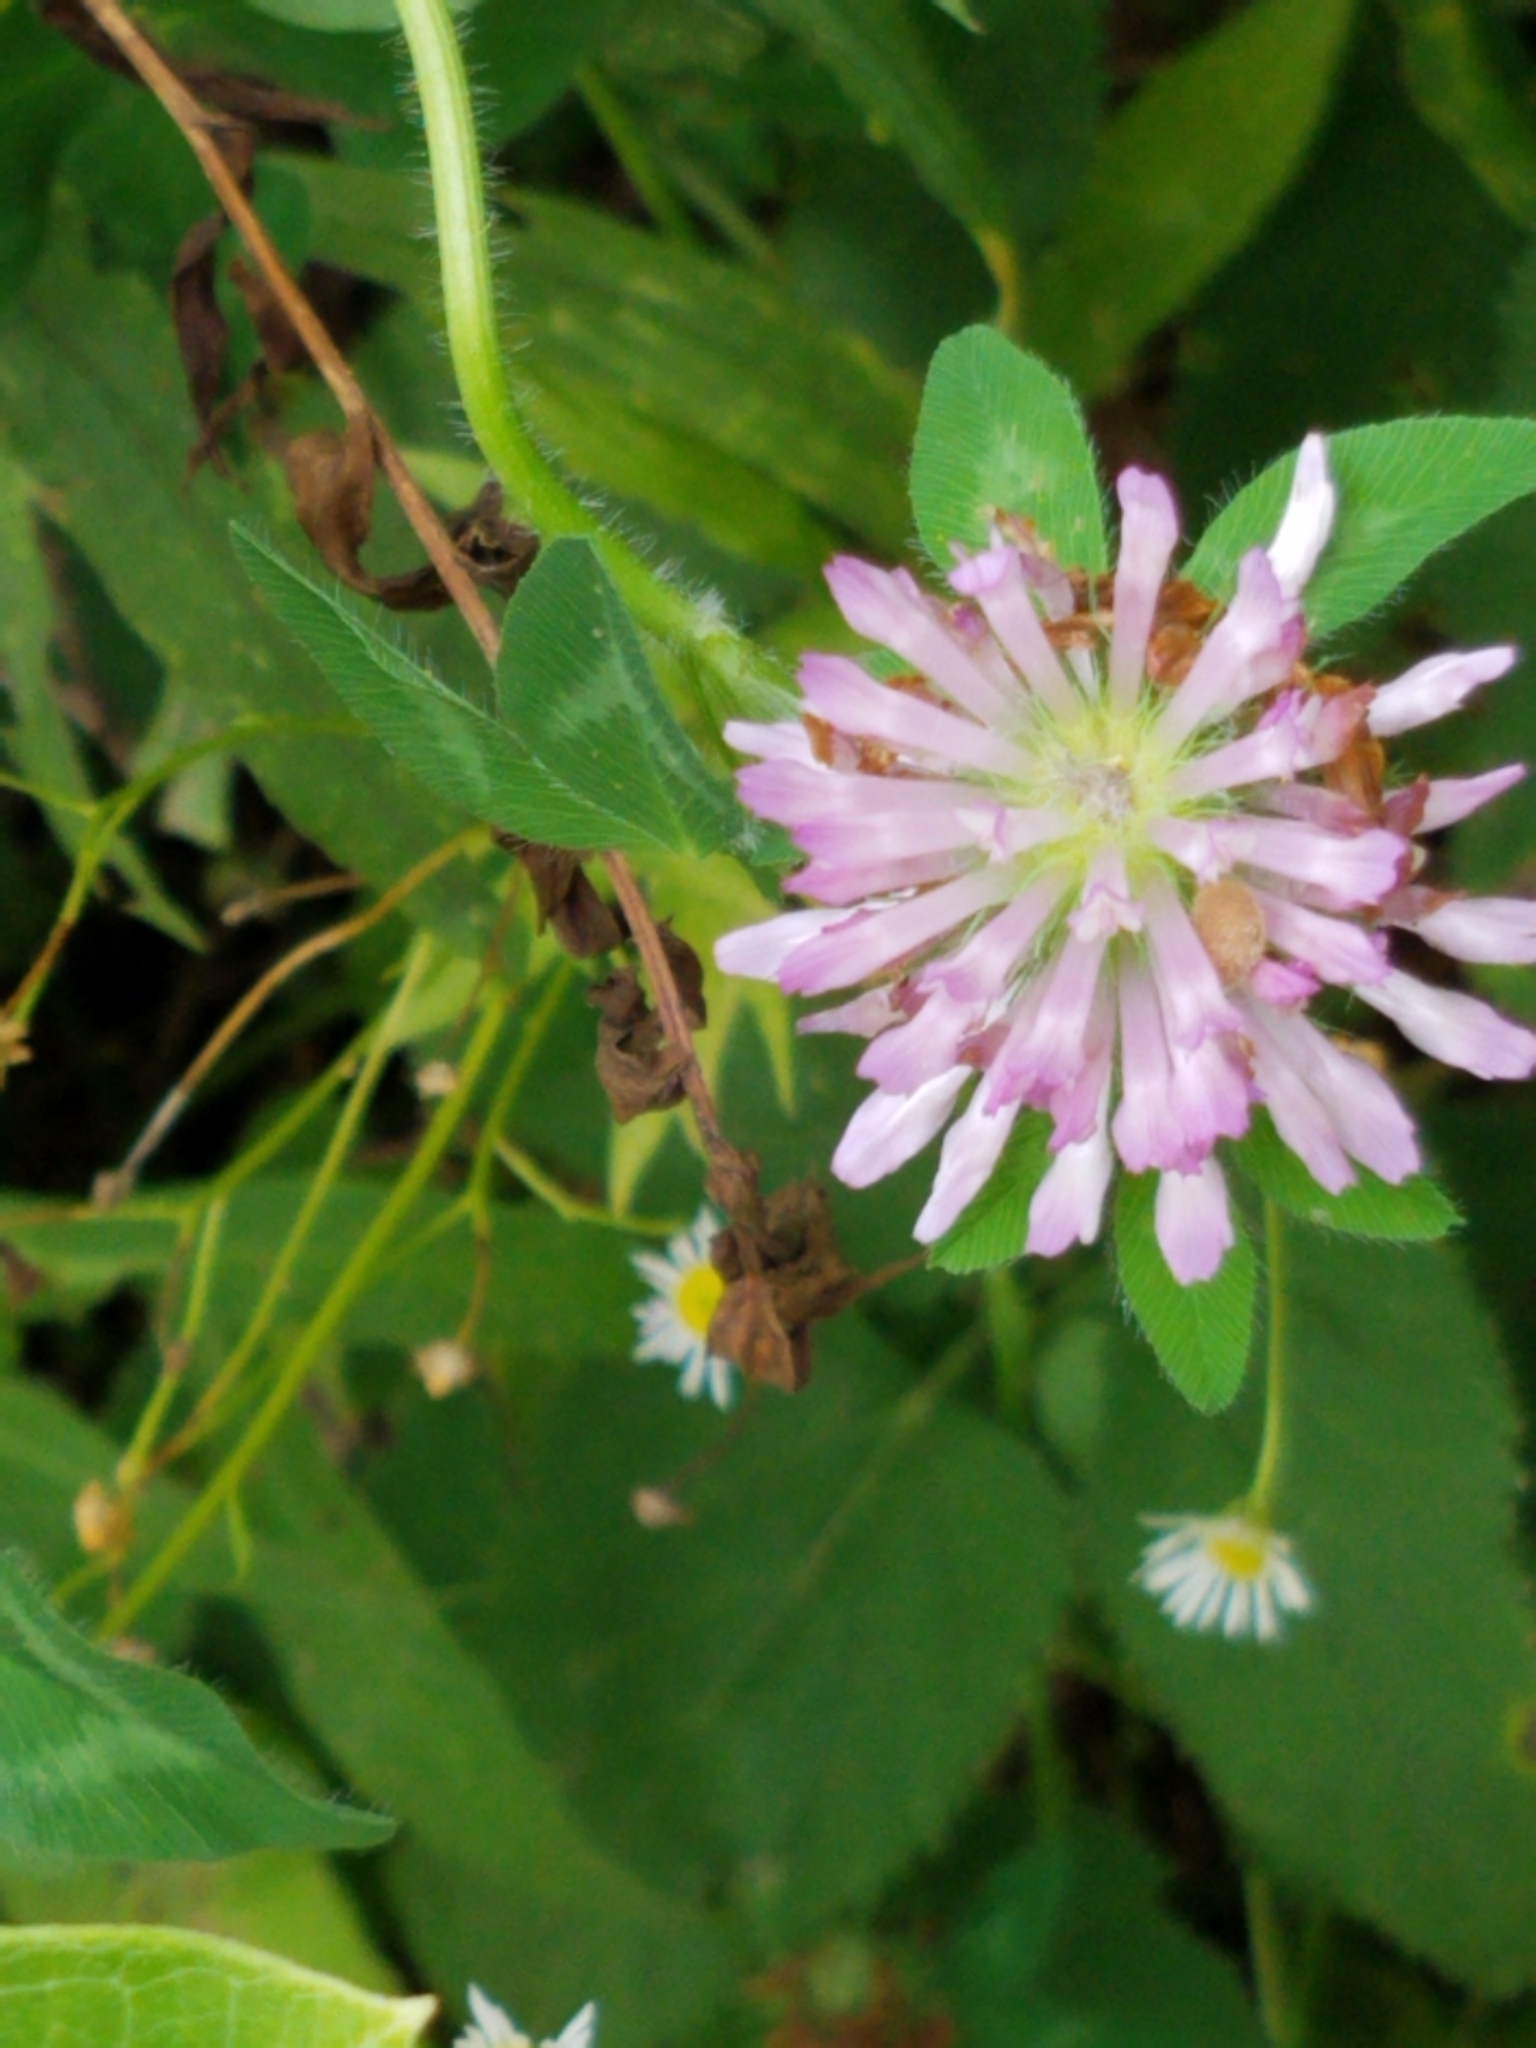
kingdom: Plantae
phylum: Tracheophyta
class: Magnoliopsida
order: Fabales
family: Fabaceae
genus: Trifolium
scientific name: Trifolium pratense
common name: Red clover
